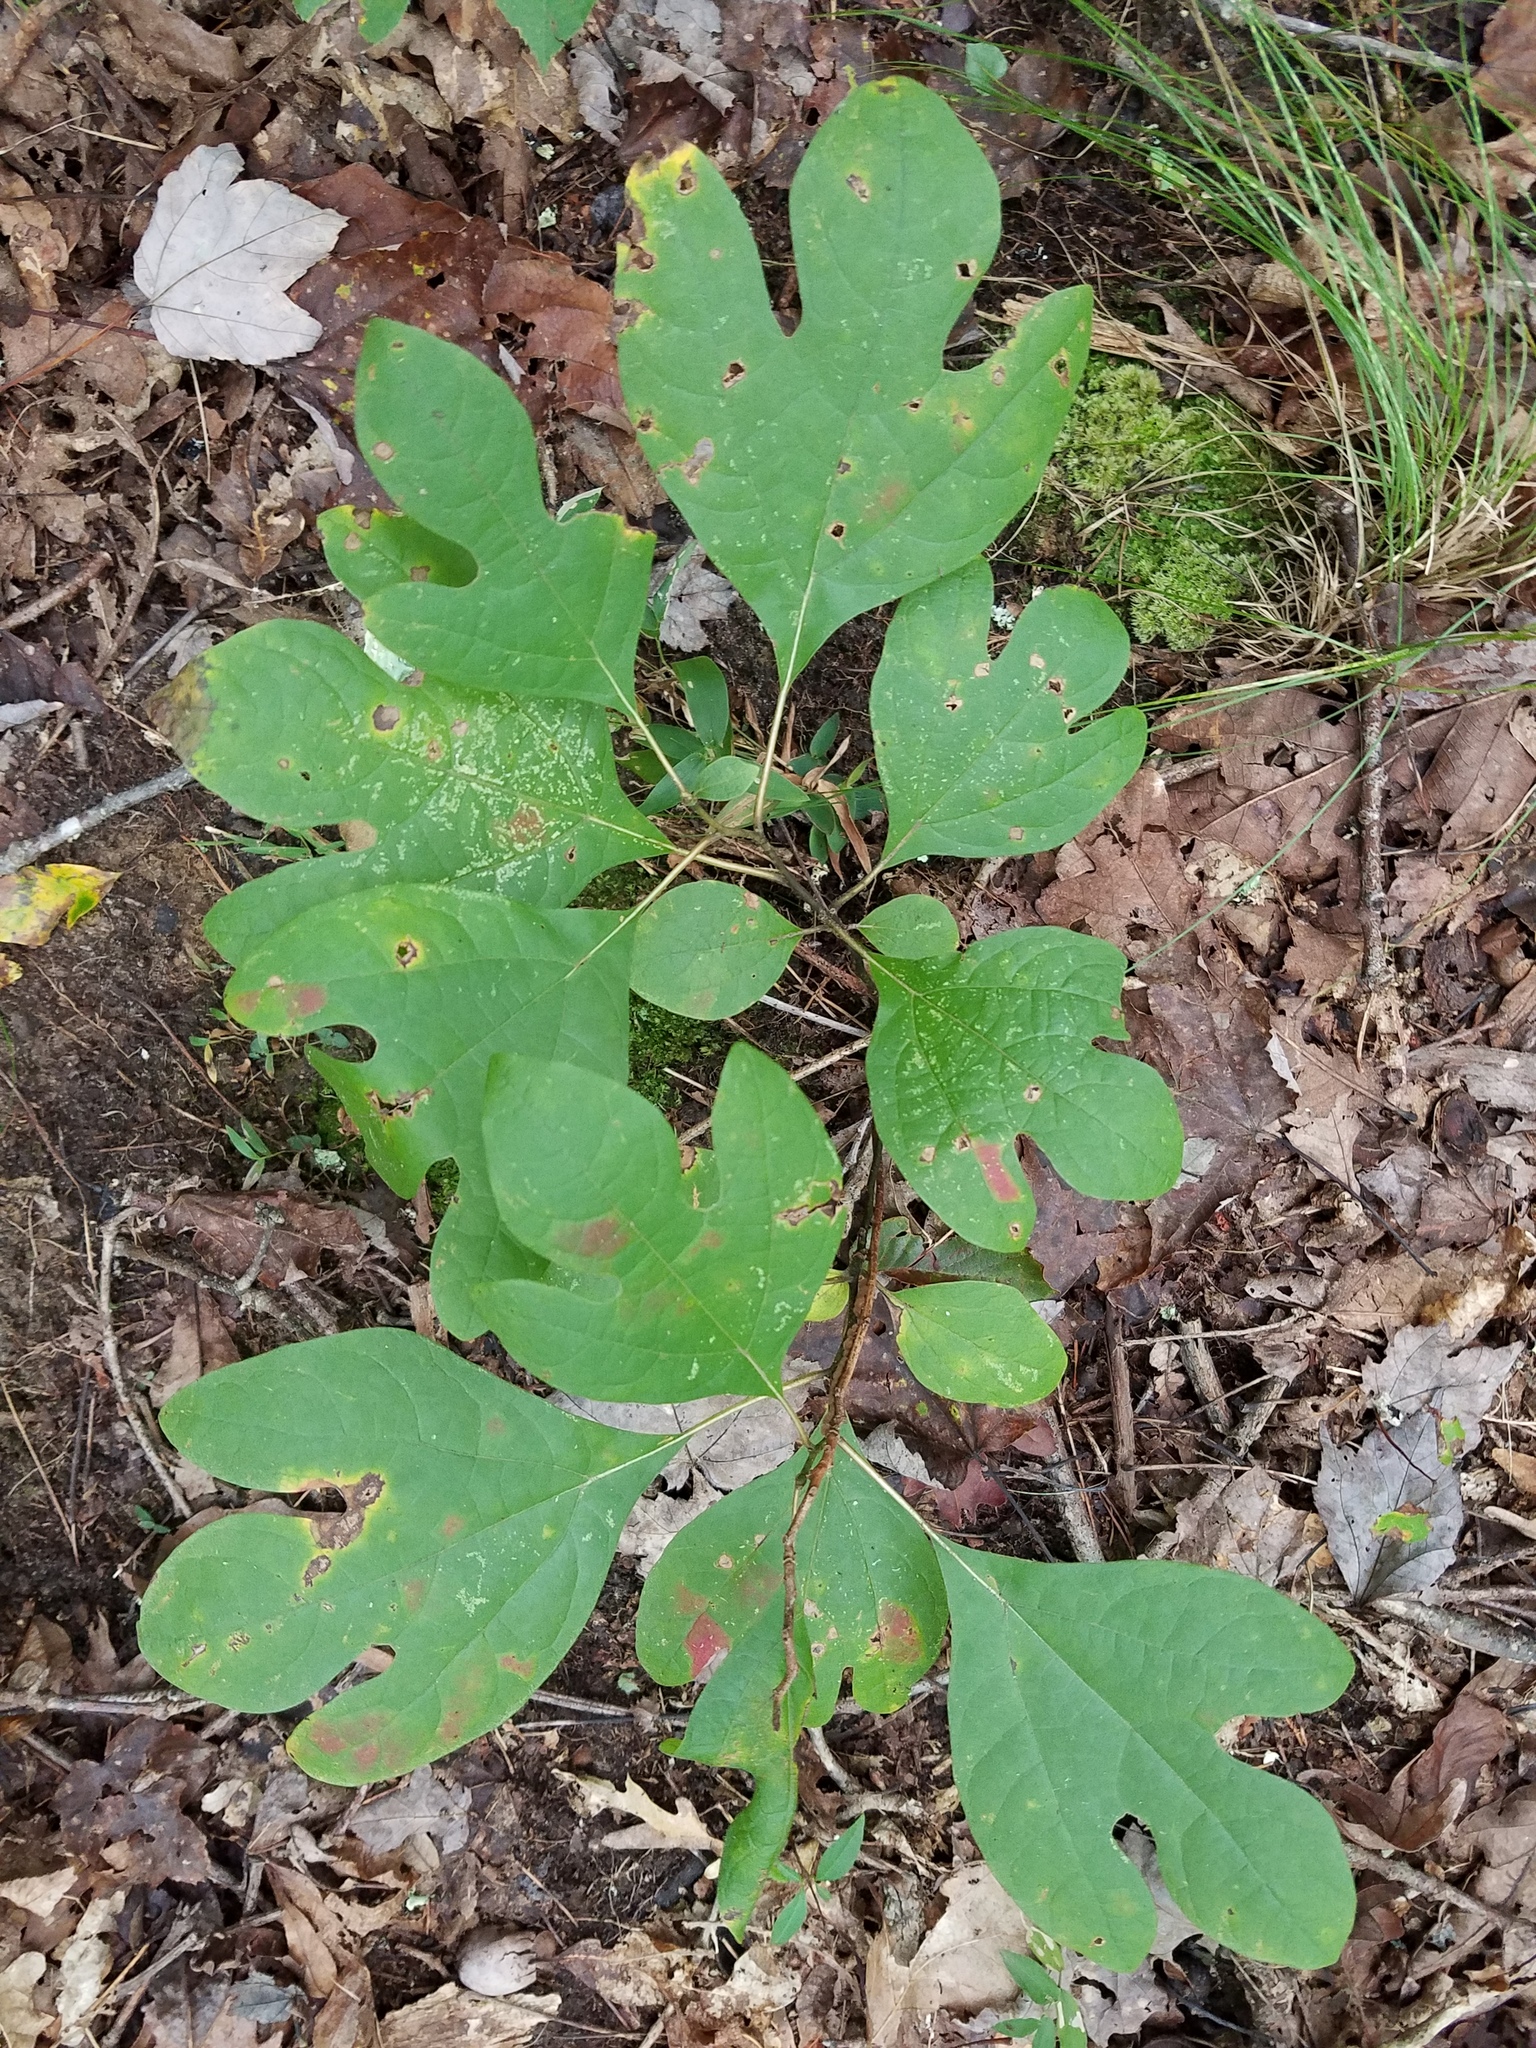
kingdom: Plantae
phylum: Tracheophyta
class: Magnoliopsida
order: Laurales
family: Lauraceae
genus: Sassafras
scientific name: Sassafras albidum
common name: Sassafras
